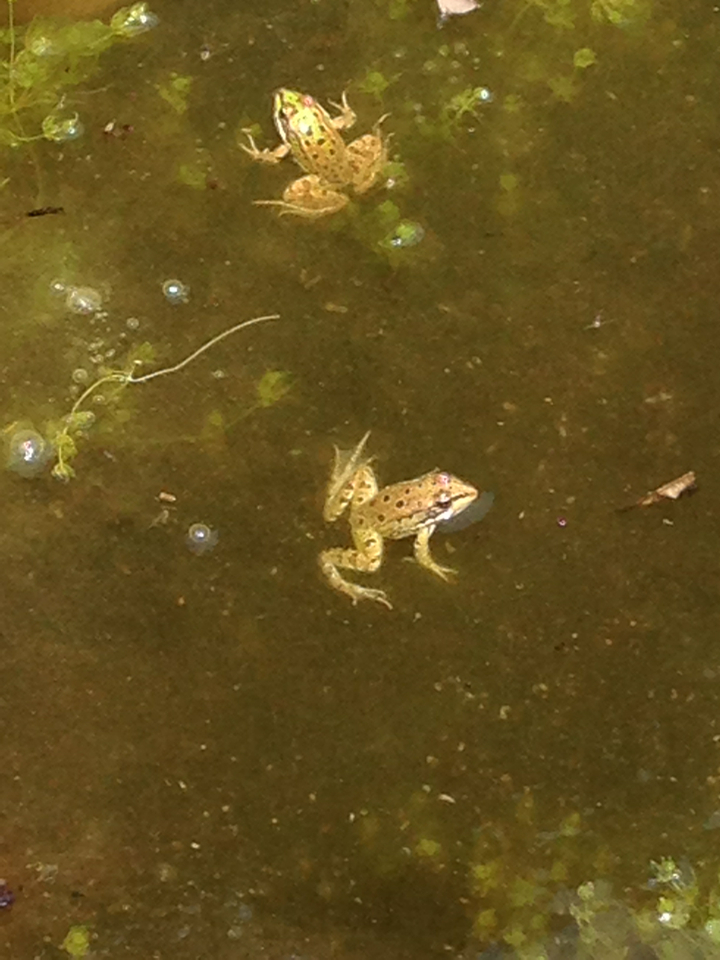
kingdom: Animalia
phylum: Chordata
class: Amphibia
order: Anura
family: Ranidae
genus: Pelophylax
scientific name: Pelophylax perezi
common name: Perez's frog
